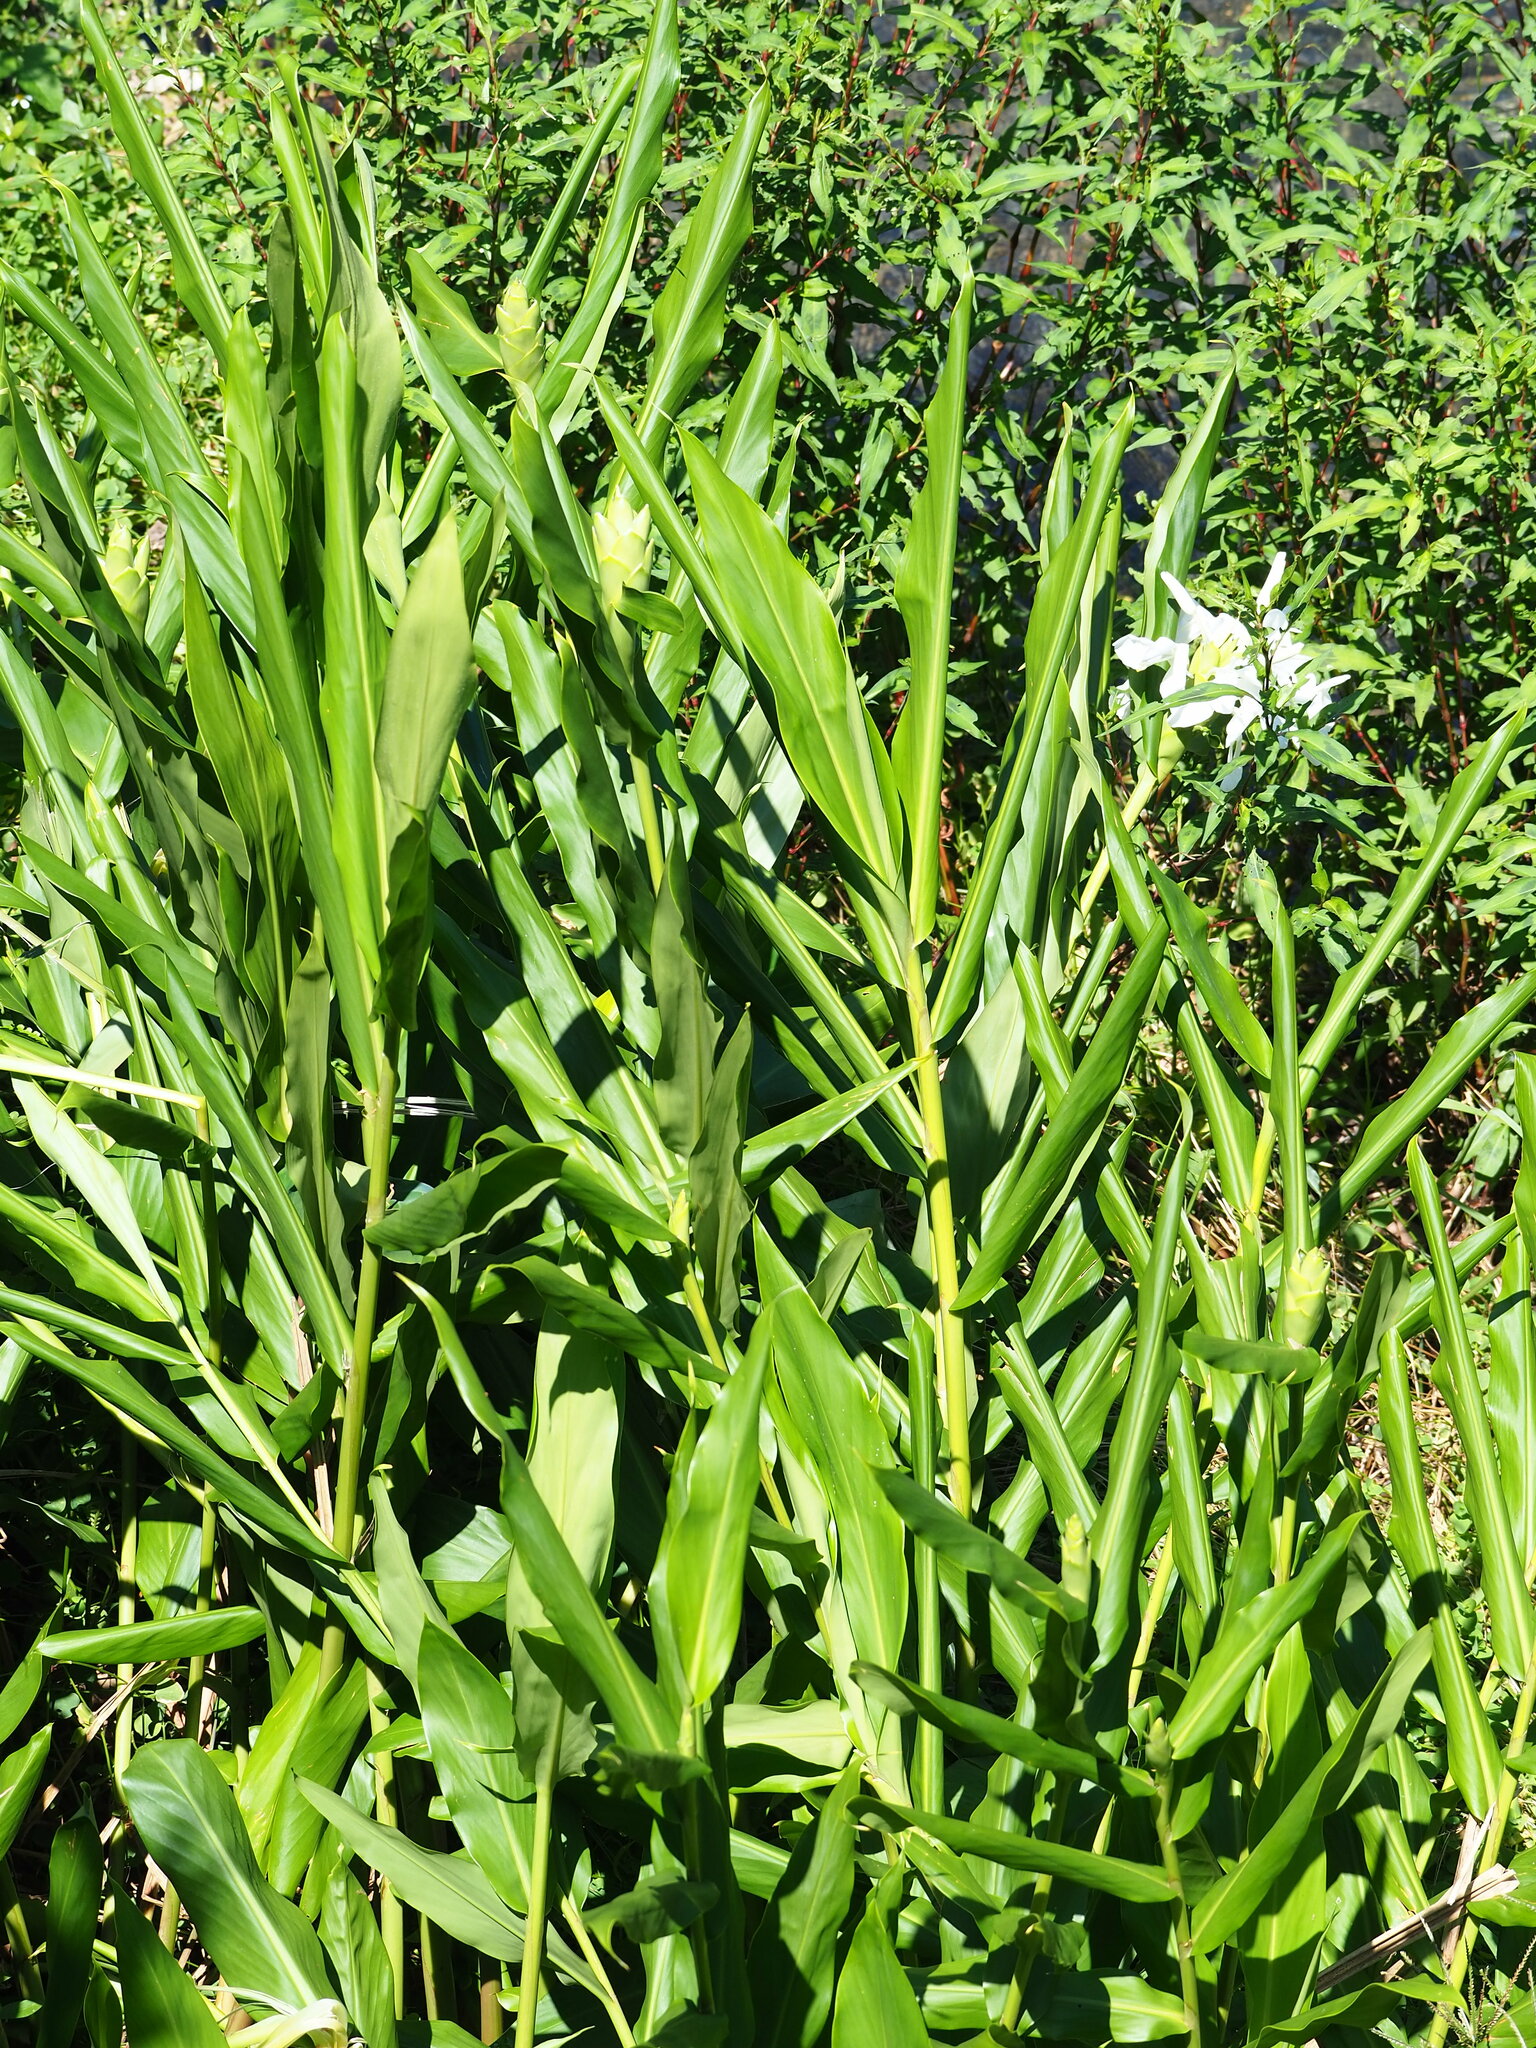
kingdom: Plantae
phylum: Tracheophyta
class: Liliopsida
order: Zingiberales
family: Zingiberaceae
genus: Hedychium
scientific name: Hedychium coronarium
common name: White garland-lily
